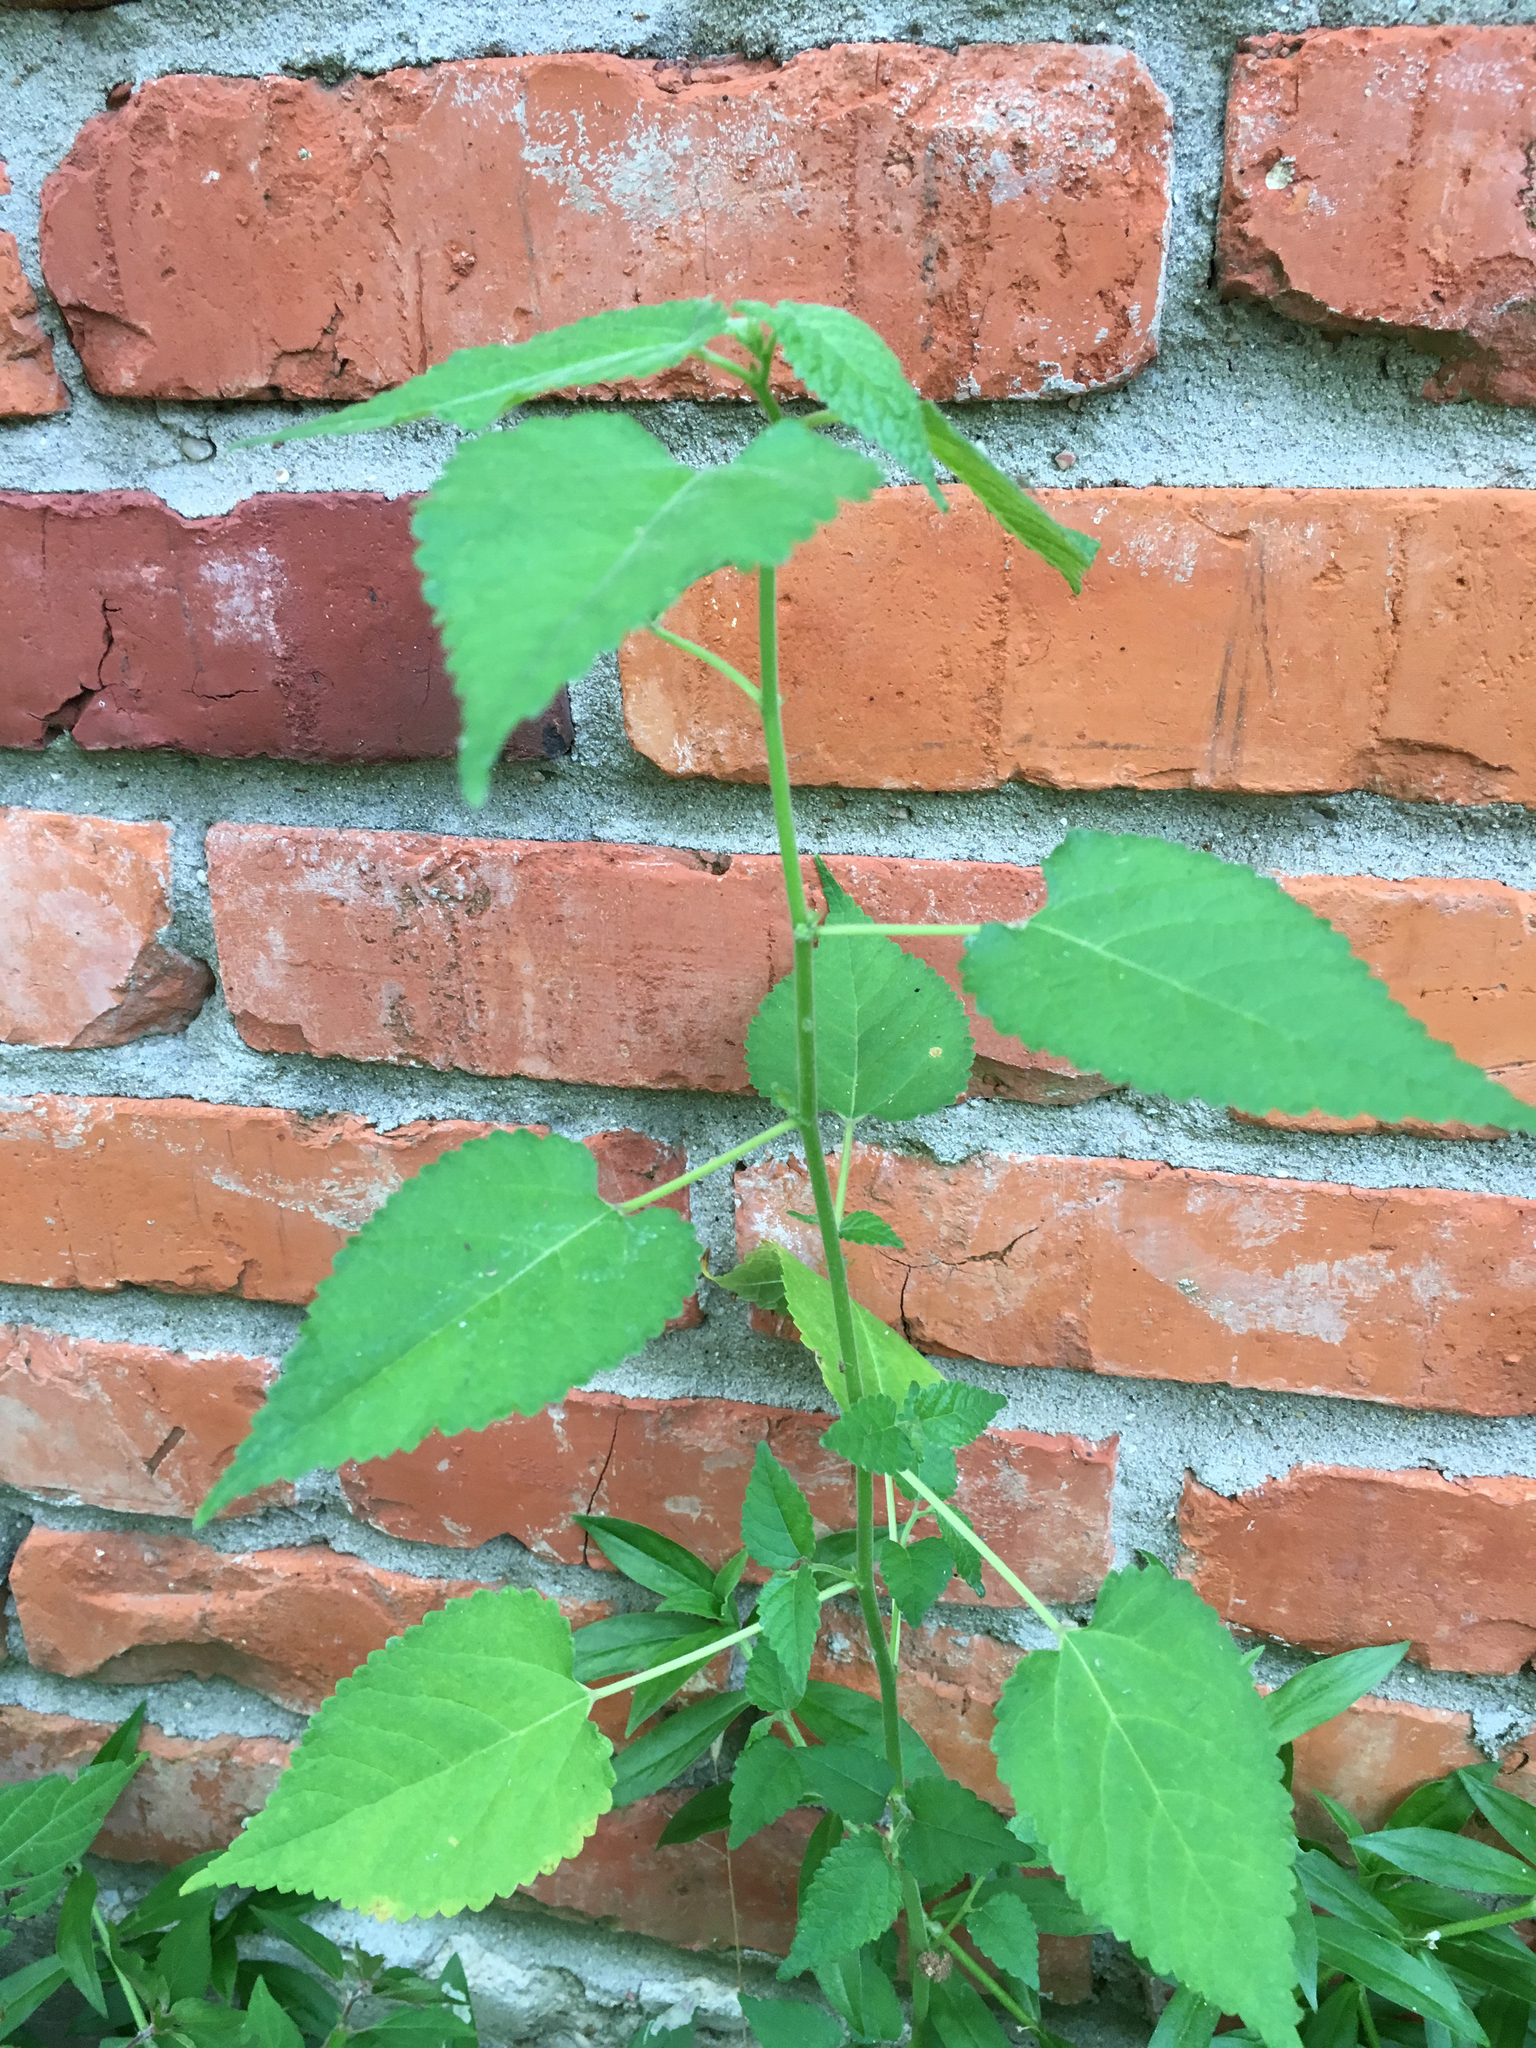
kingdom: Plantae
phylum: Tracheophyta
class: Magnoliopsida
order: Rosales
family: Moraceae
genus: Fatoua
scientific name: Fatoua villosa
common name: Hairy crabweed
